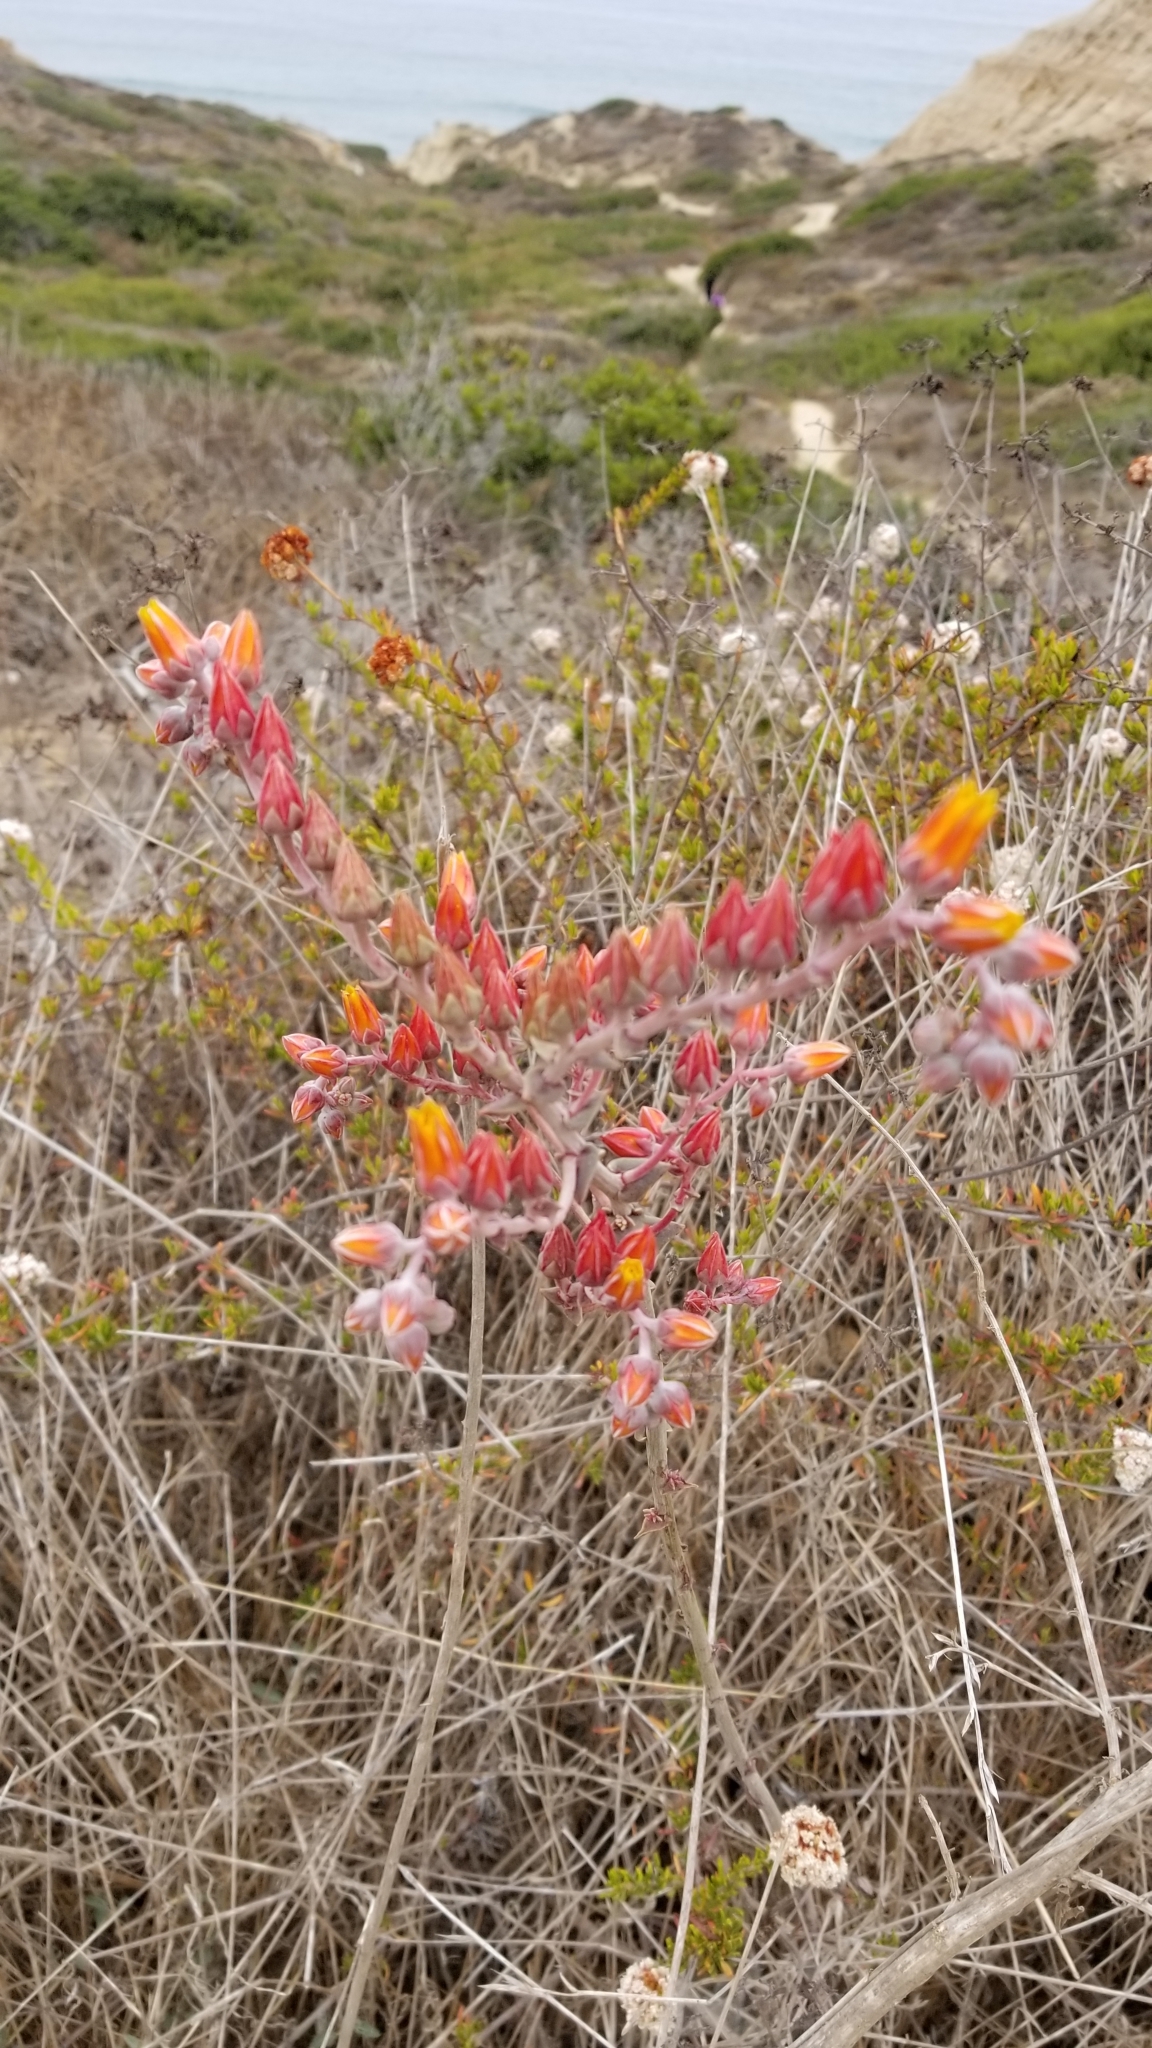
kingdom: Plantae
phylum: Tracheophyta
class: Magnoliopsida
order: Saxifragales
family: Crassulaceae
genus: Dudleya
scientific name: Dudleya lanceolata
